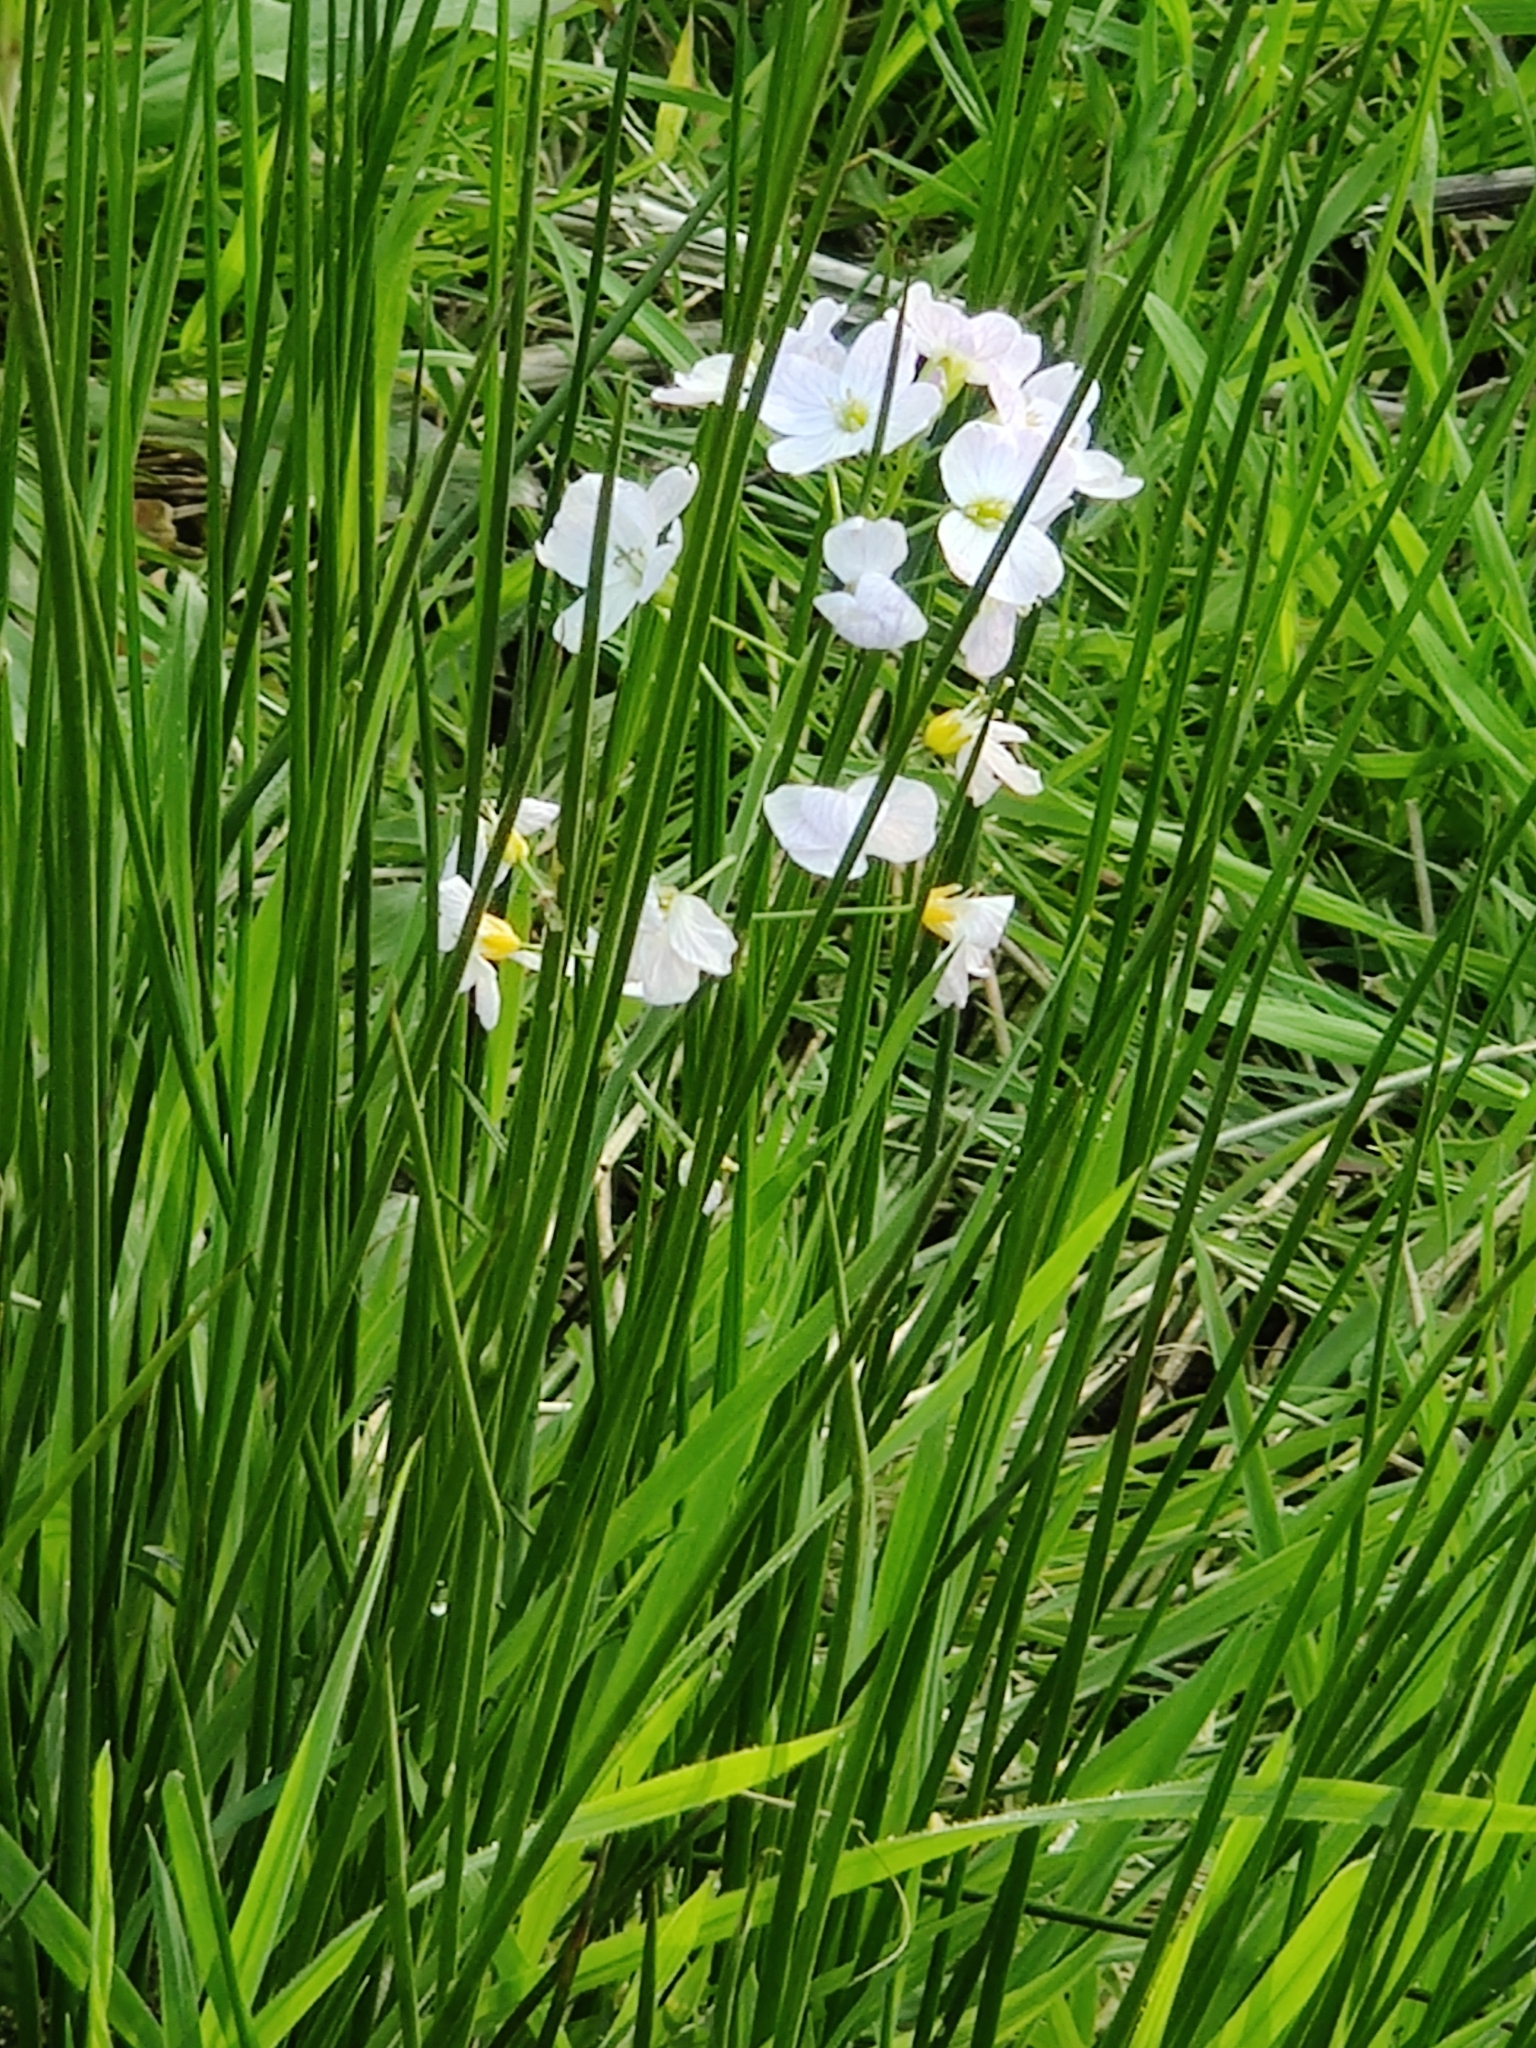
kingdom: Plantae
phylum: Tracheophyta
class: Magnoliopsida
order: Brassicales
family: Brassicaceae
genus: Cardamine
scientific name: Cardamine pratensis
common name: Cuckoo flower
